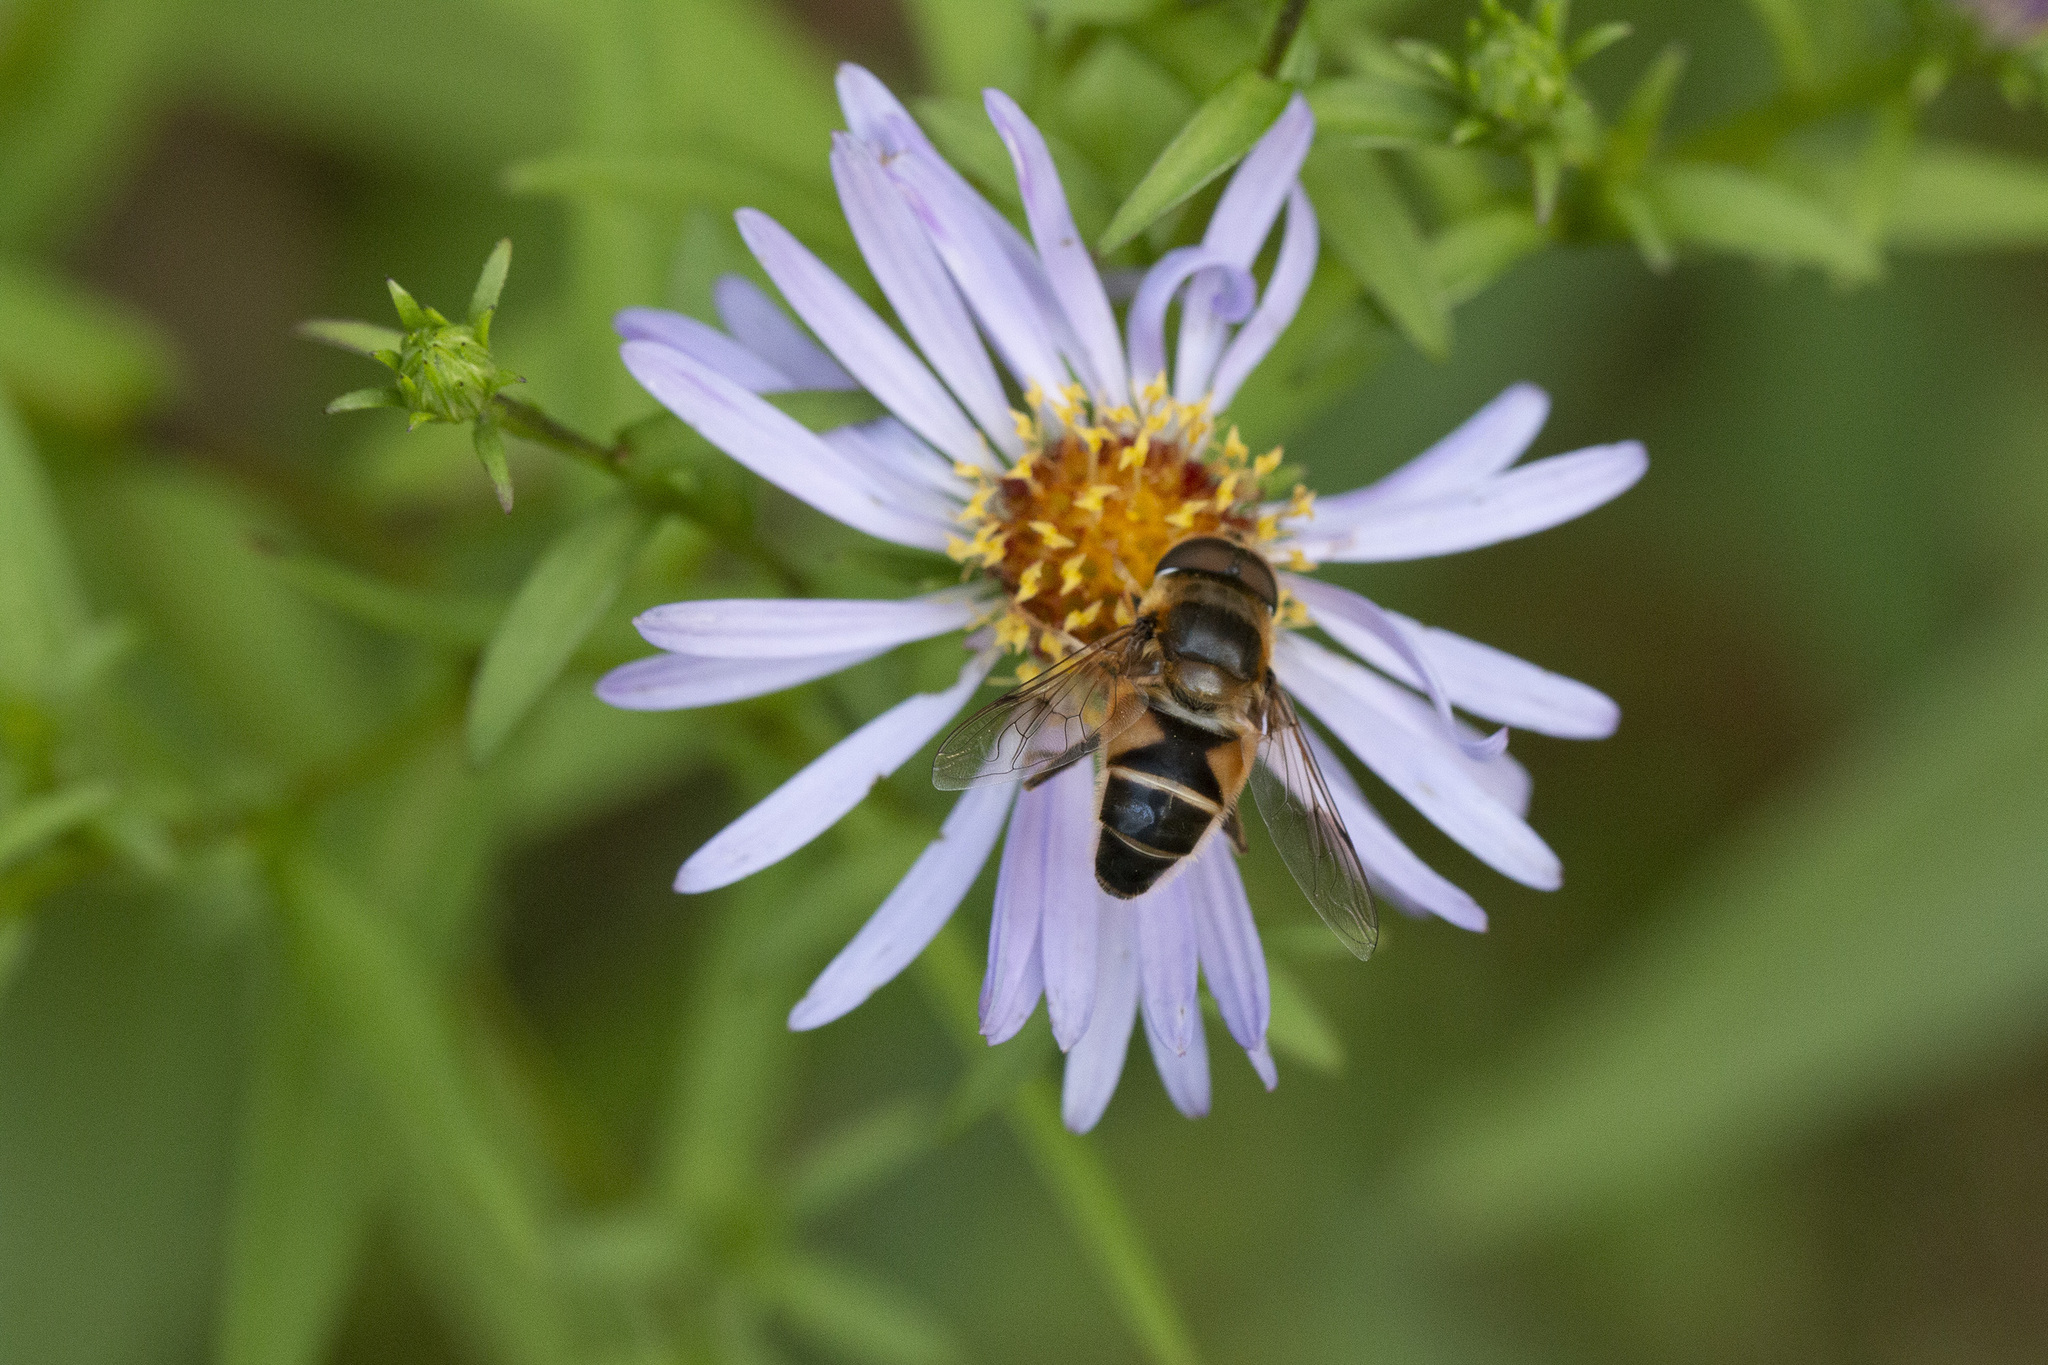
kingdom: Animalia
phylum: Arthropoda
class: Insecta
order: Diptera
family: Syrphidae
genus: Eristalis
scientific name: Eristalis pertinax
